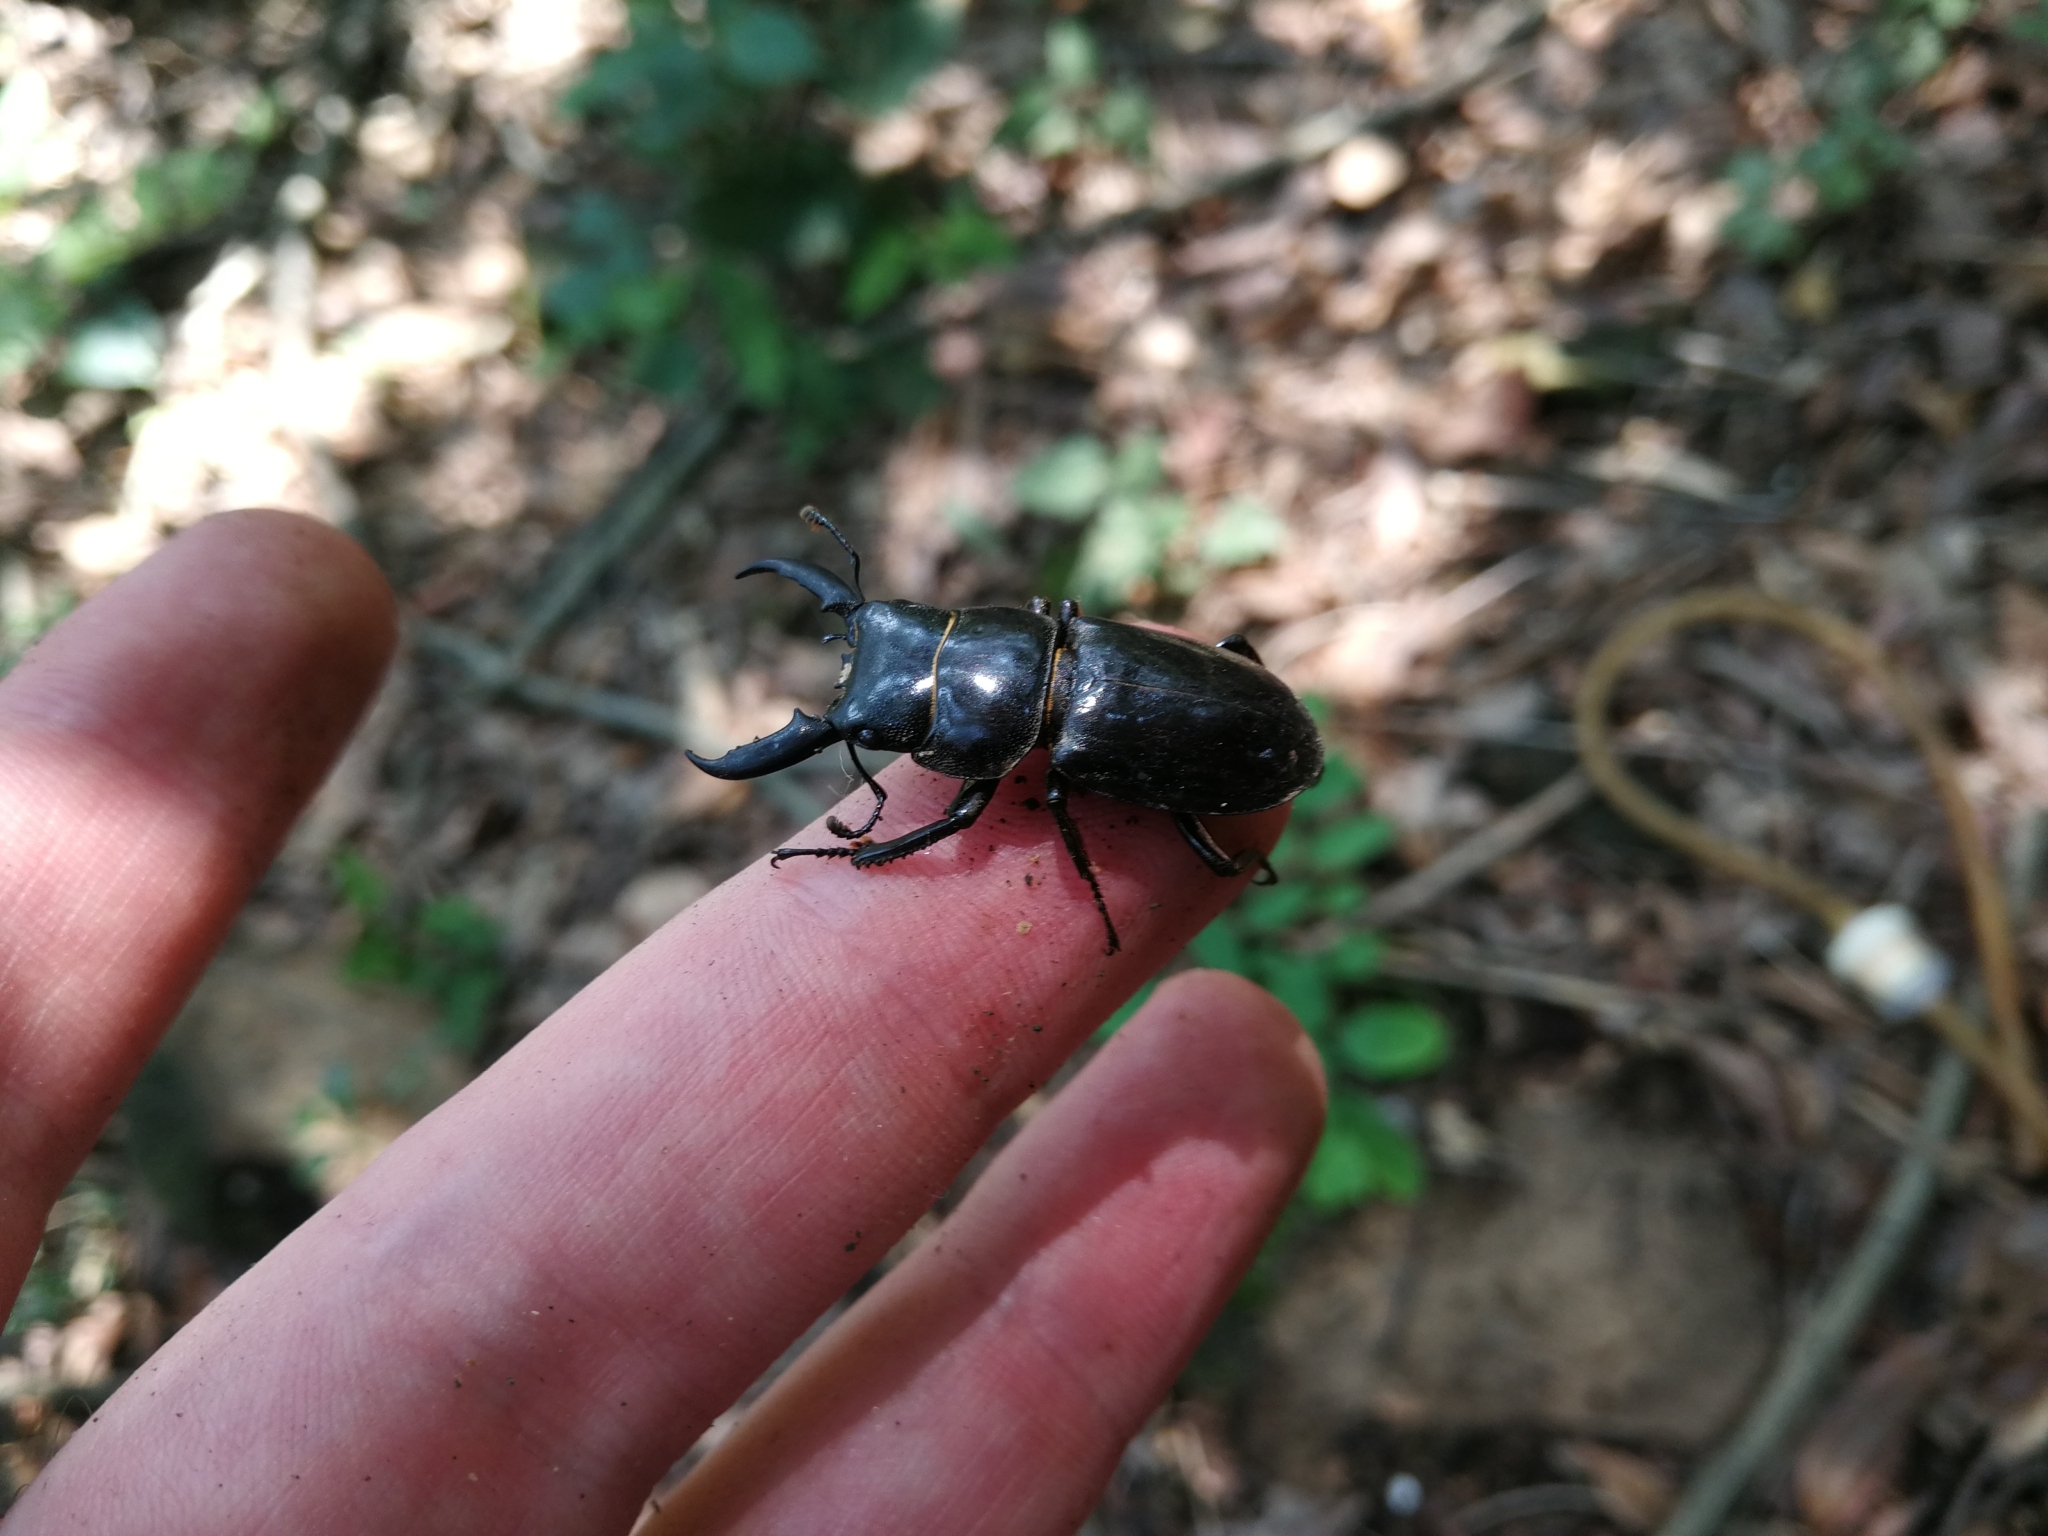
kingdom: Animalia
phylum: Arthropoda
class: Insecta
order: Coleoptera
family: Lucanidae
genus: Serrognathus
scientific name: Serrognathus titanus
